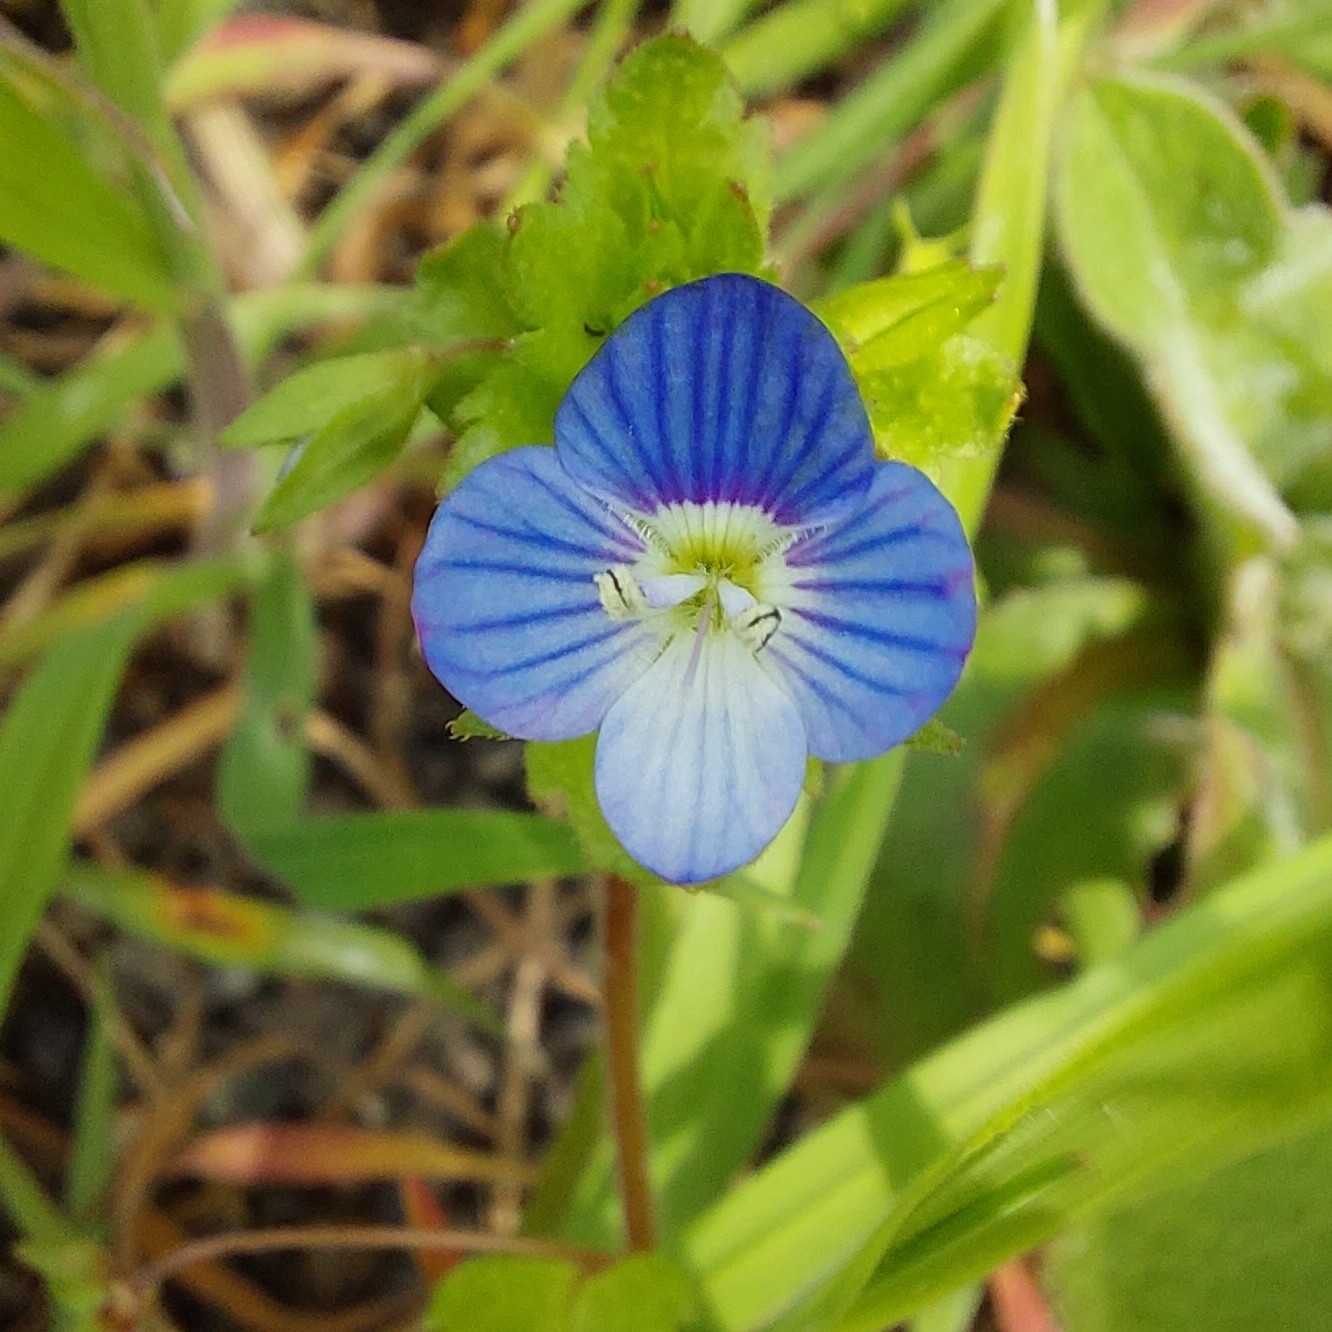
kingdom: Plantae
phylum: Tracheophyta
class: Magnoliopsida
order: Lamiales
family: Plantaginaceae
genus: Veronica
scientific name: Veronica persica
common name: Common field-speedwell
